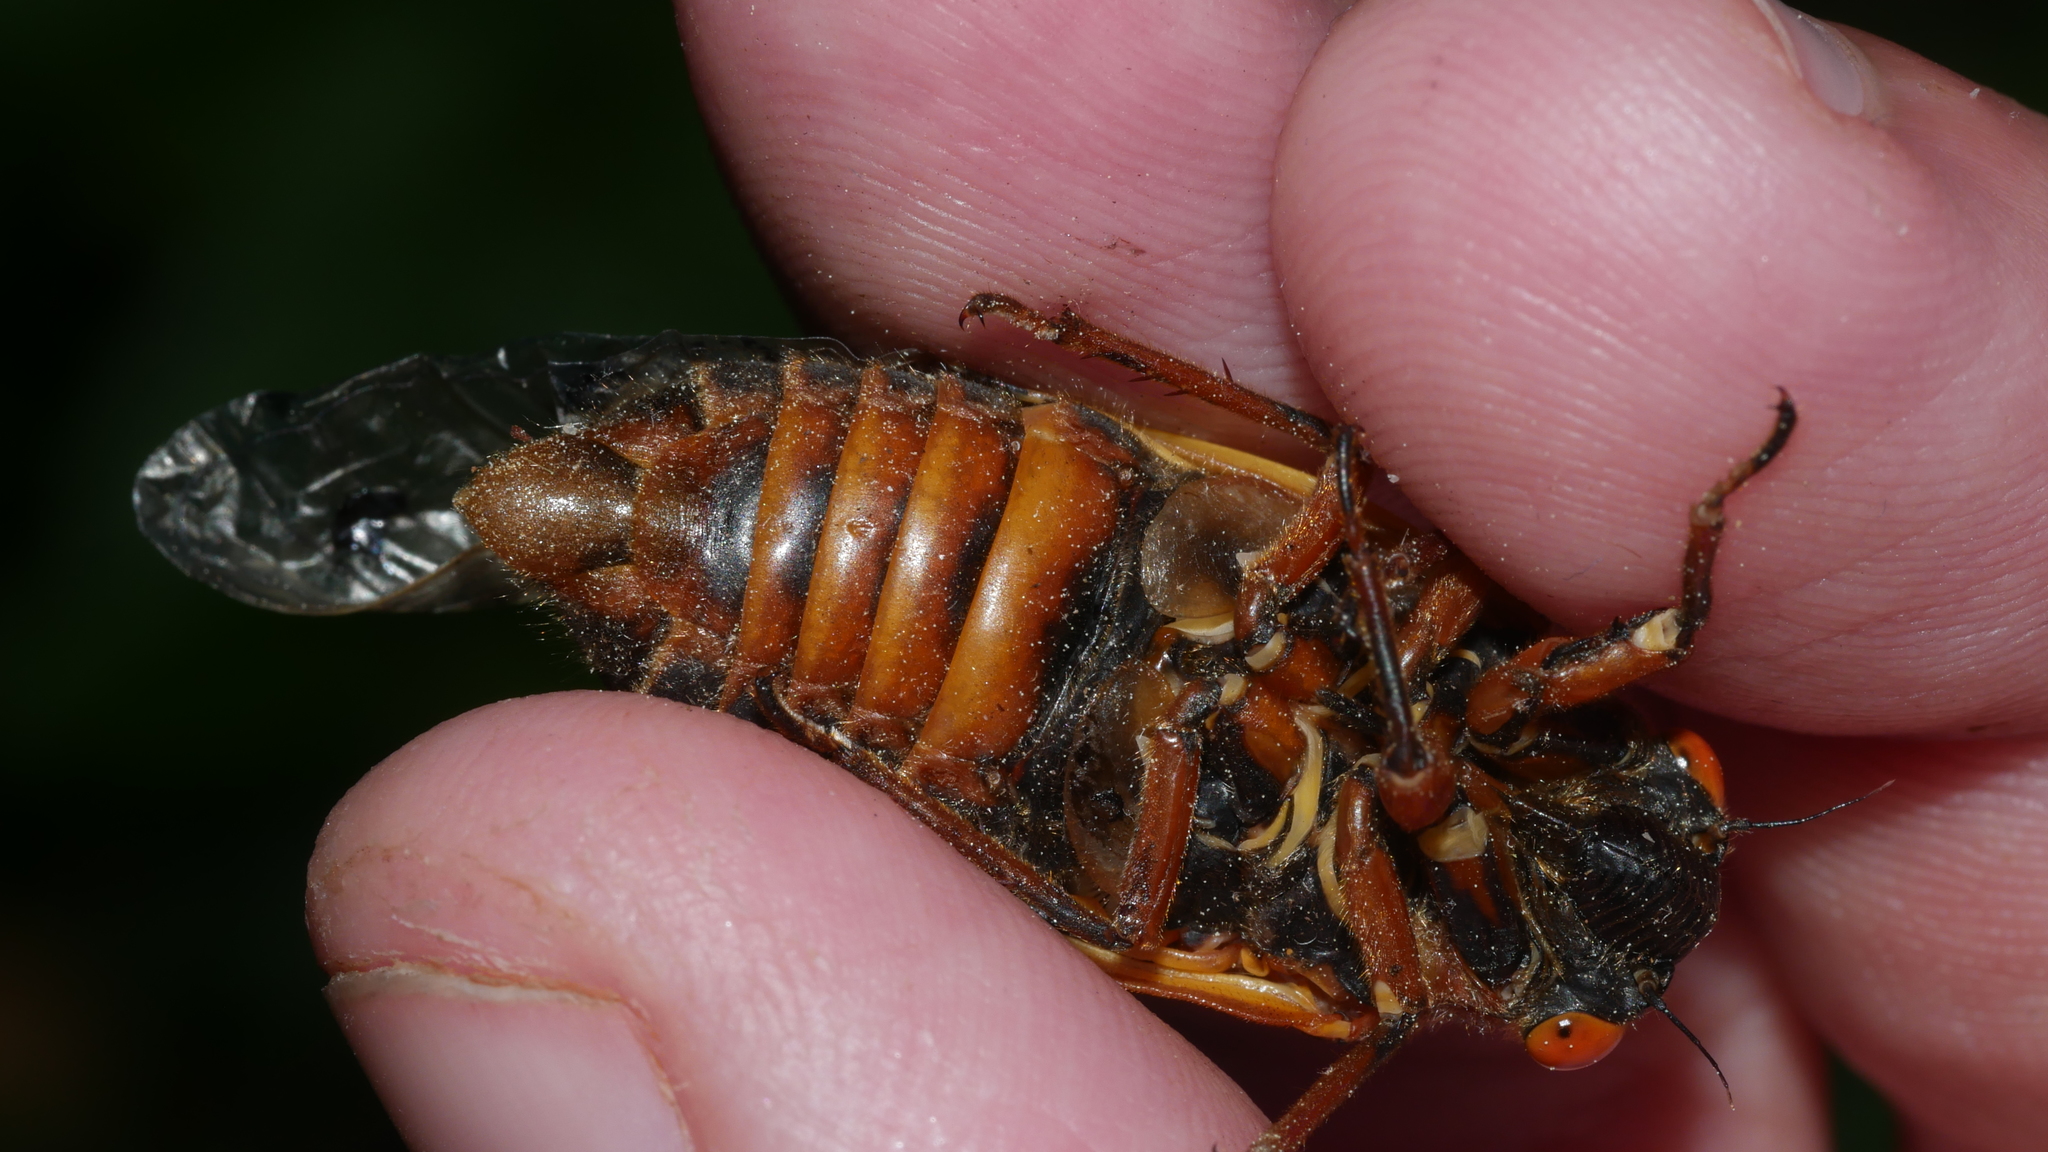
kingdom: Animalia
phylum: Arthropoda
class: Insecta
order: Hemiptera
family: Cicadidae
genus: Magicicada
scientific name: Magicicada septendecim
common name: Periodical cicada
